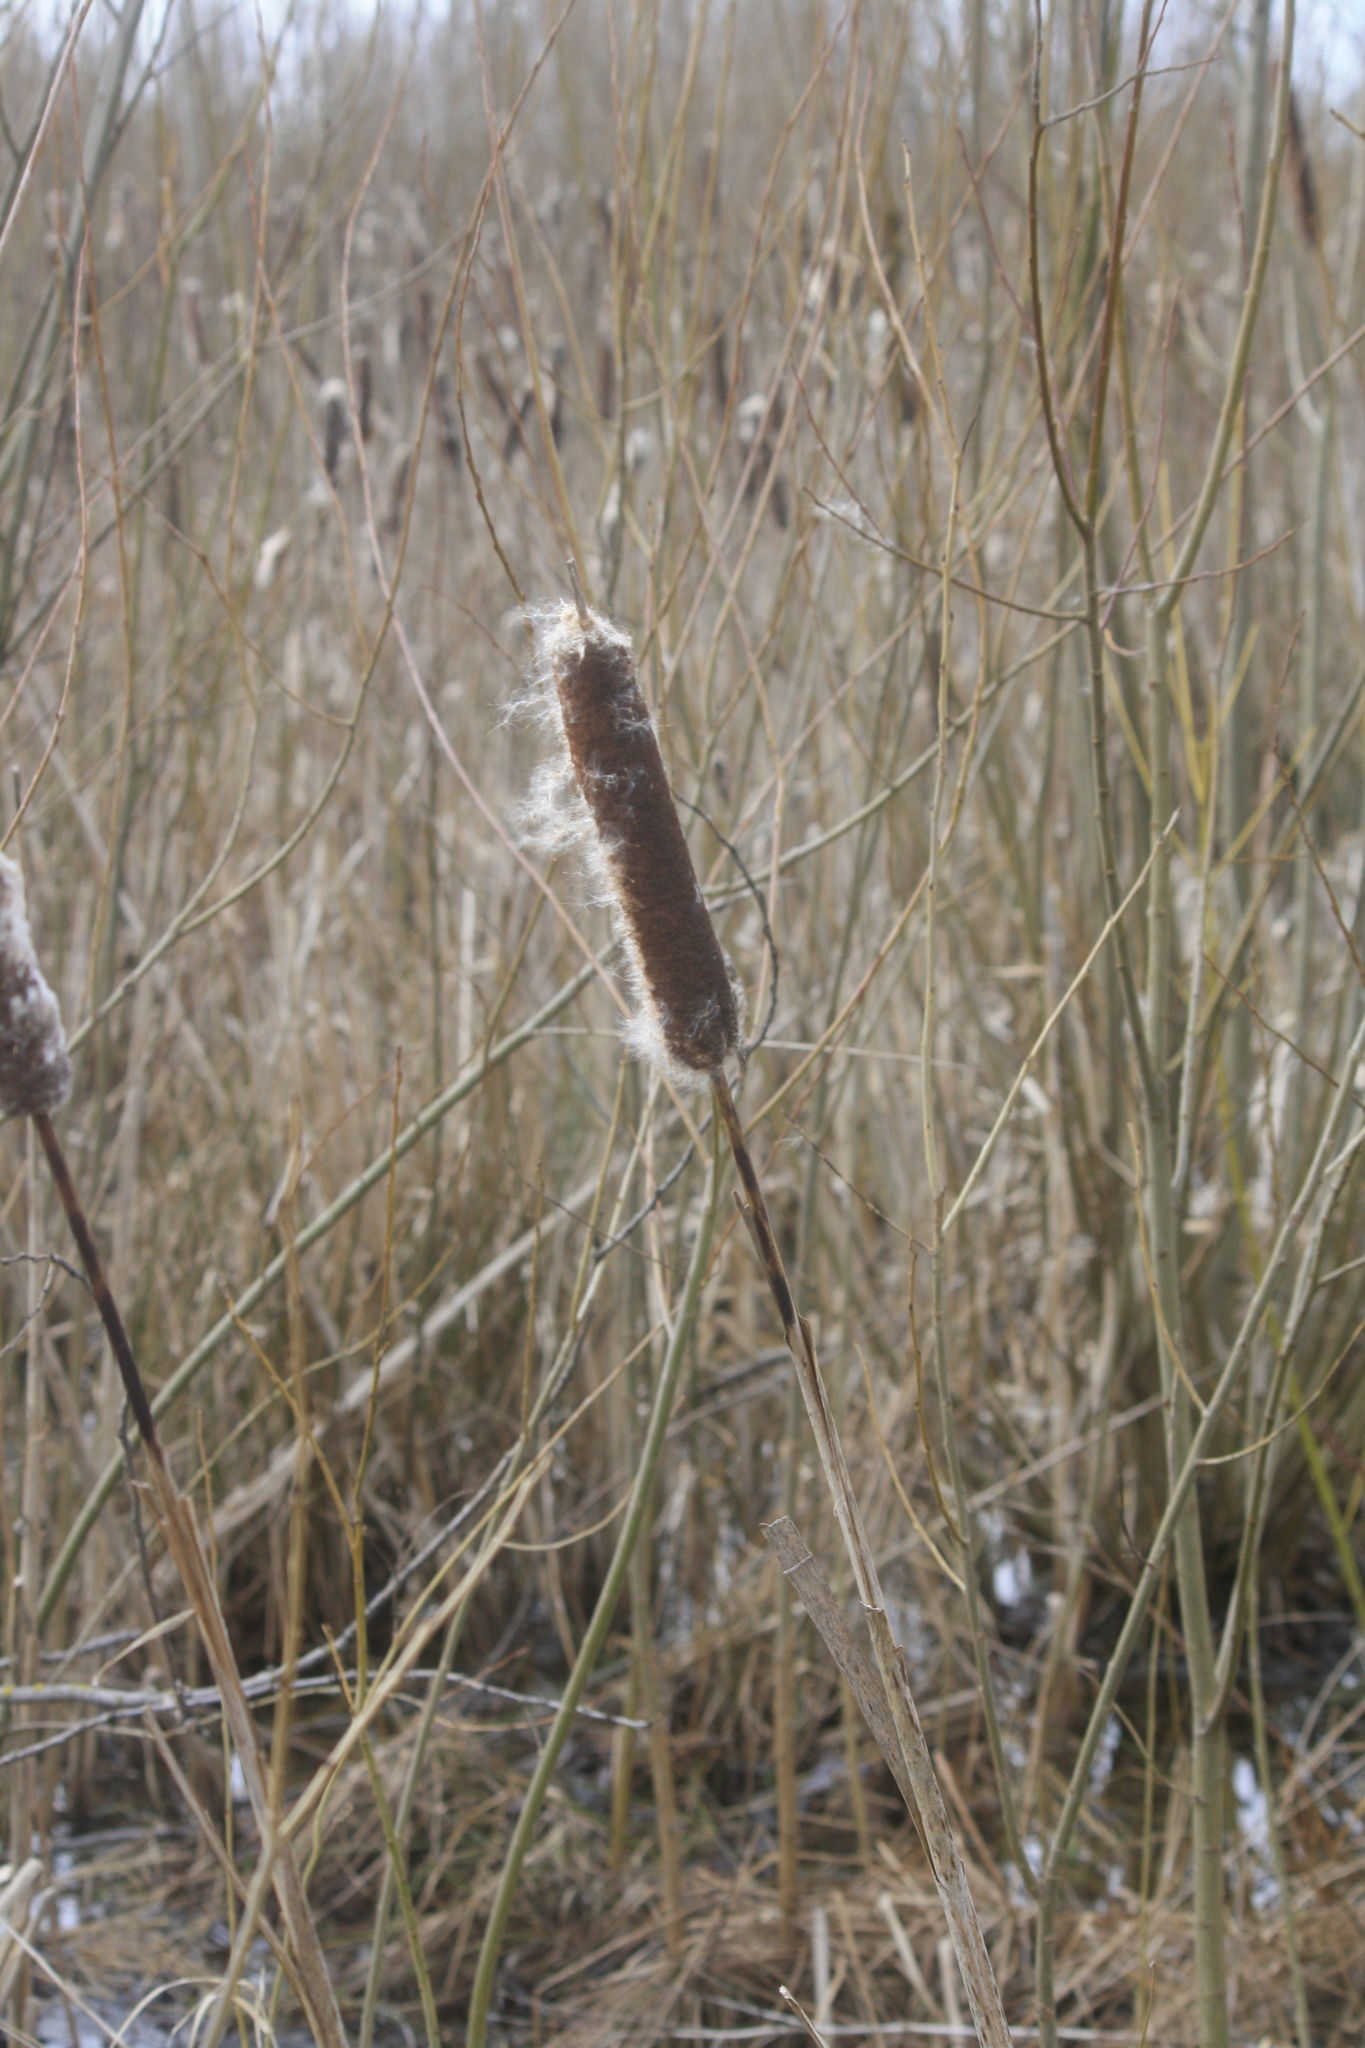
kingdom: Plantae
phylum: Tracheophyta
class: Liliopsida
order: Poales
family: Typhaceae
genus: Typha
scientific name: Typha latifolia
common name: Broadleaf cattail
